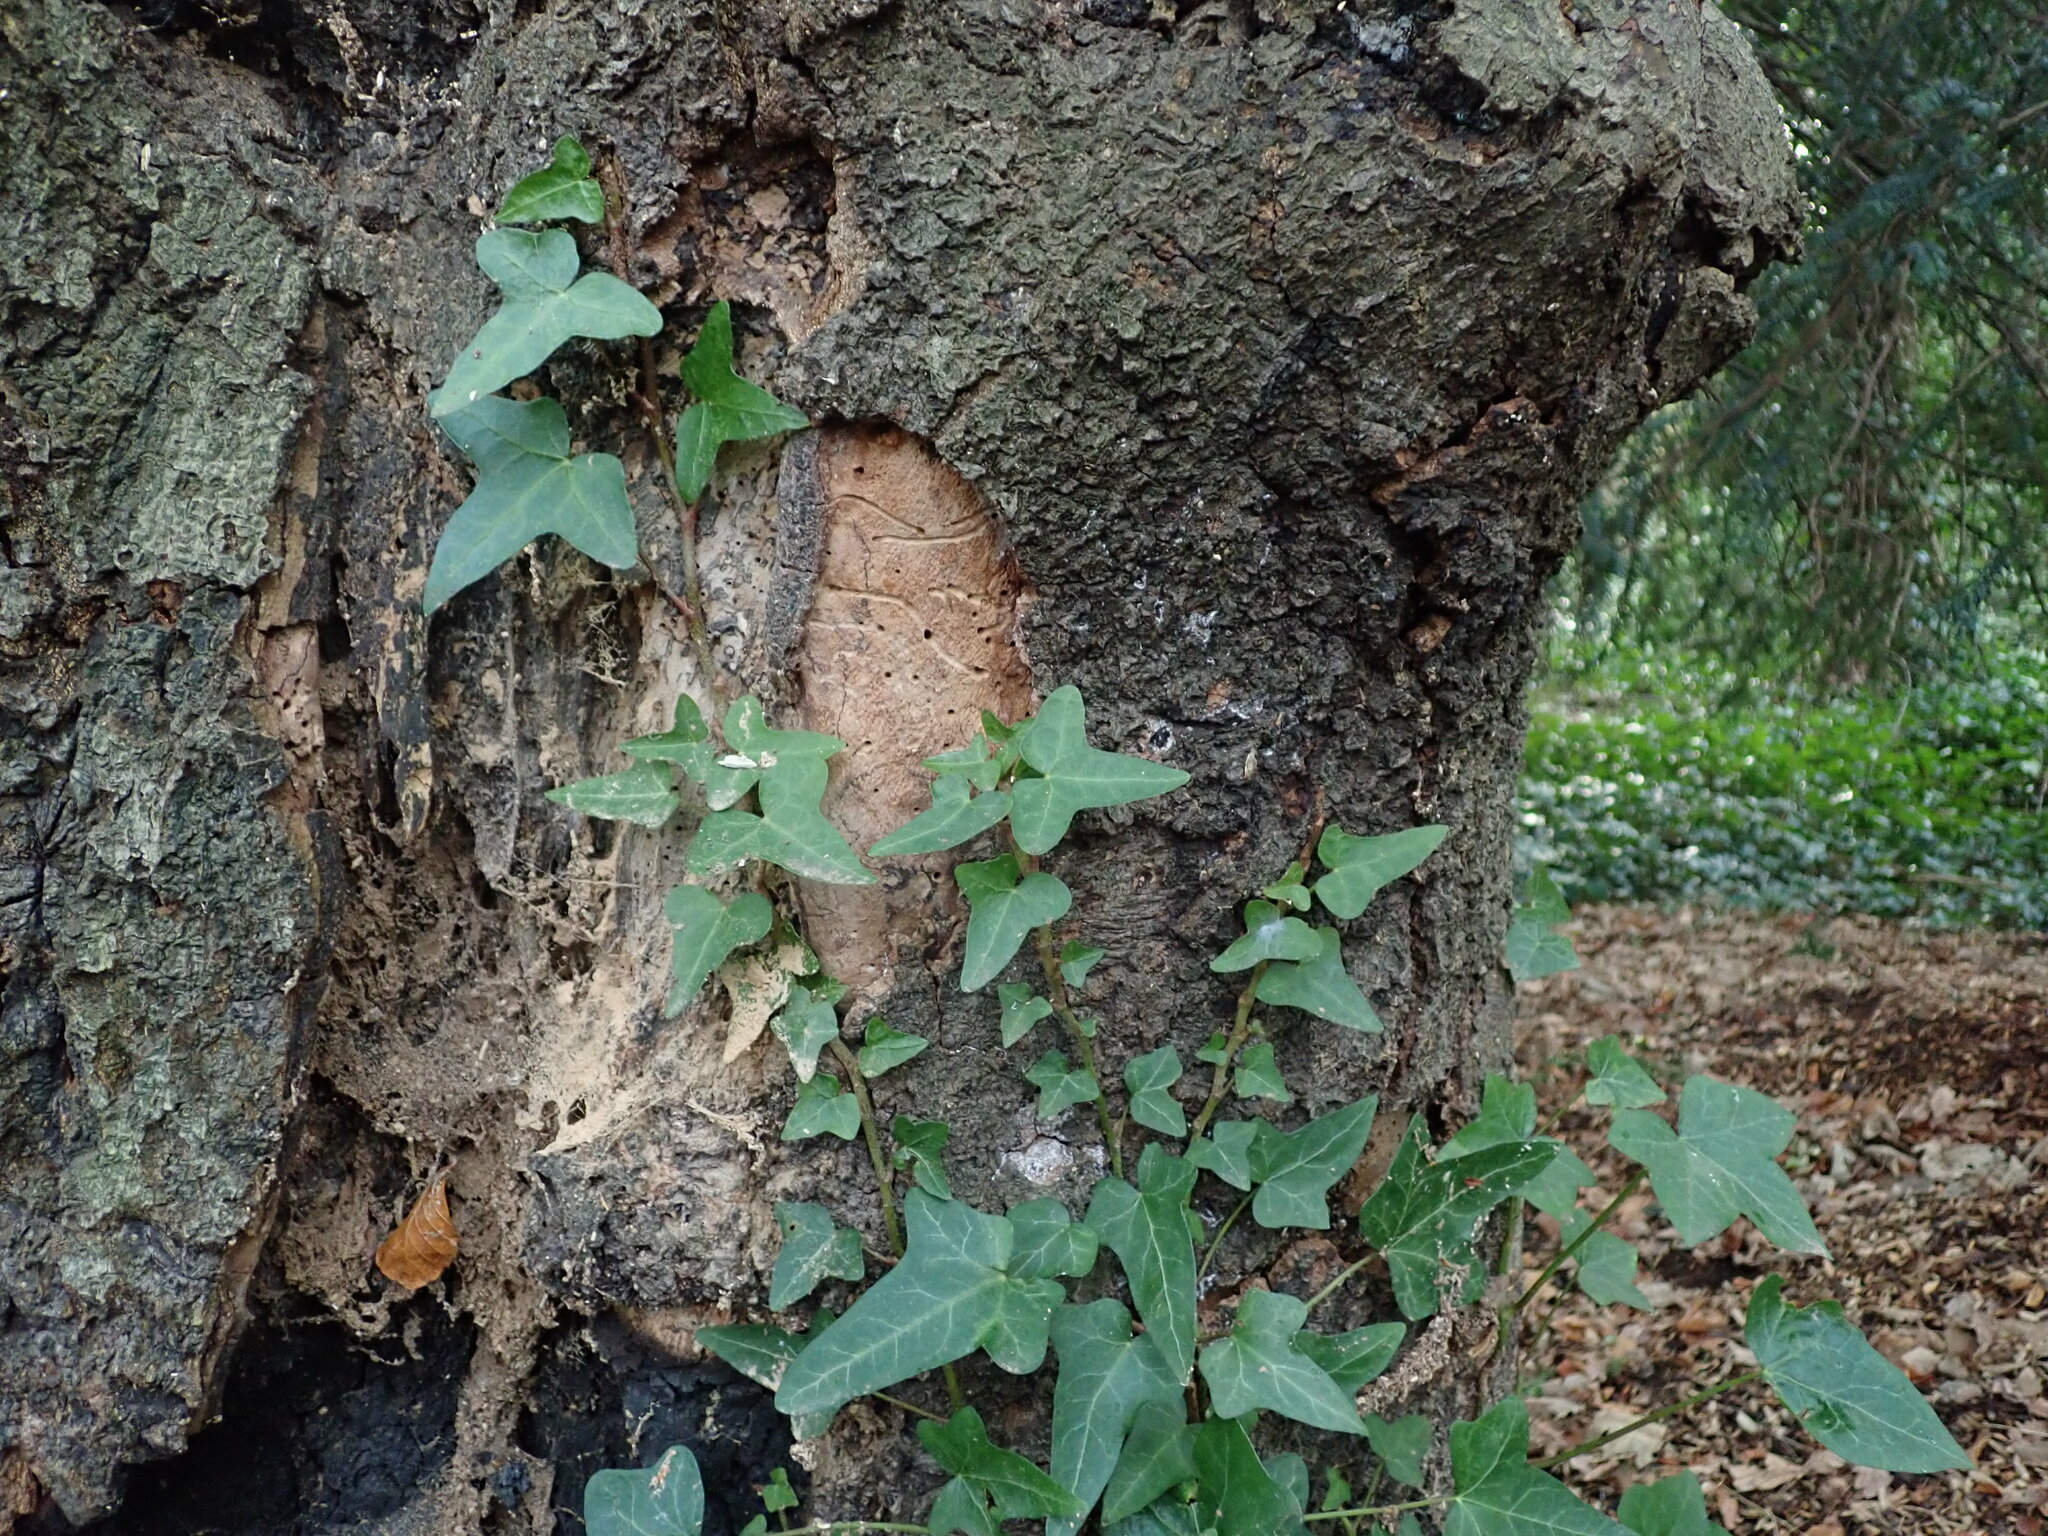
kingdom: Plantae
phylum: Tracheophyta
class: Magnoliopsida
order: Apiales
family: Araliaceae
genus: Hedera
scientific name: Hedera helix
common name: Ivy
